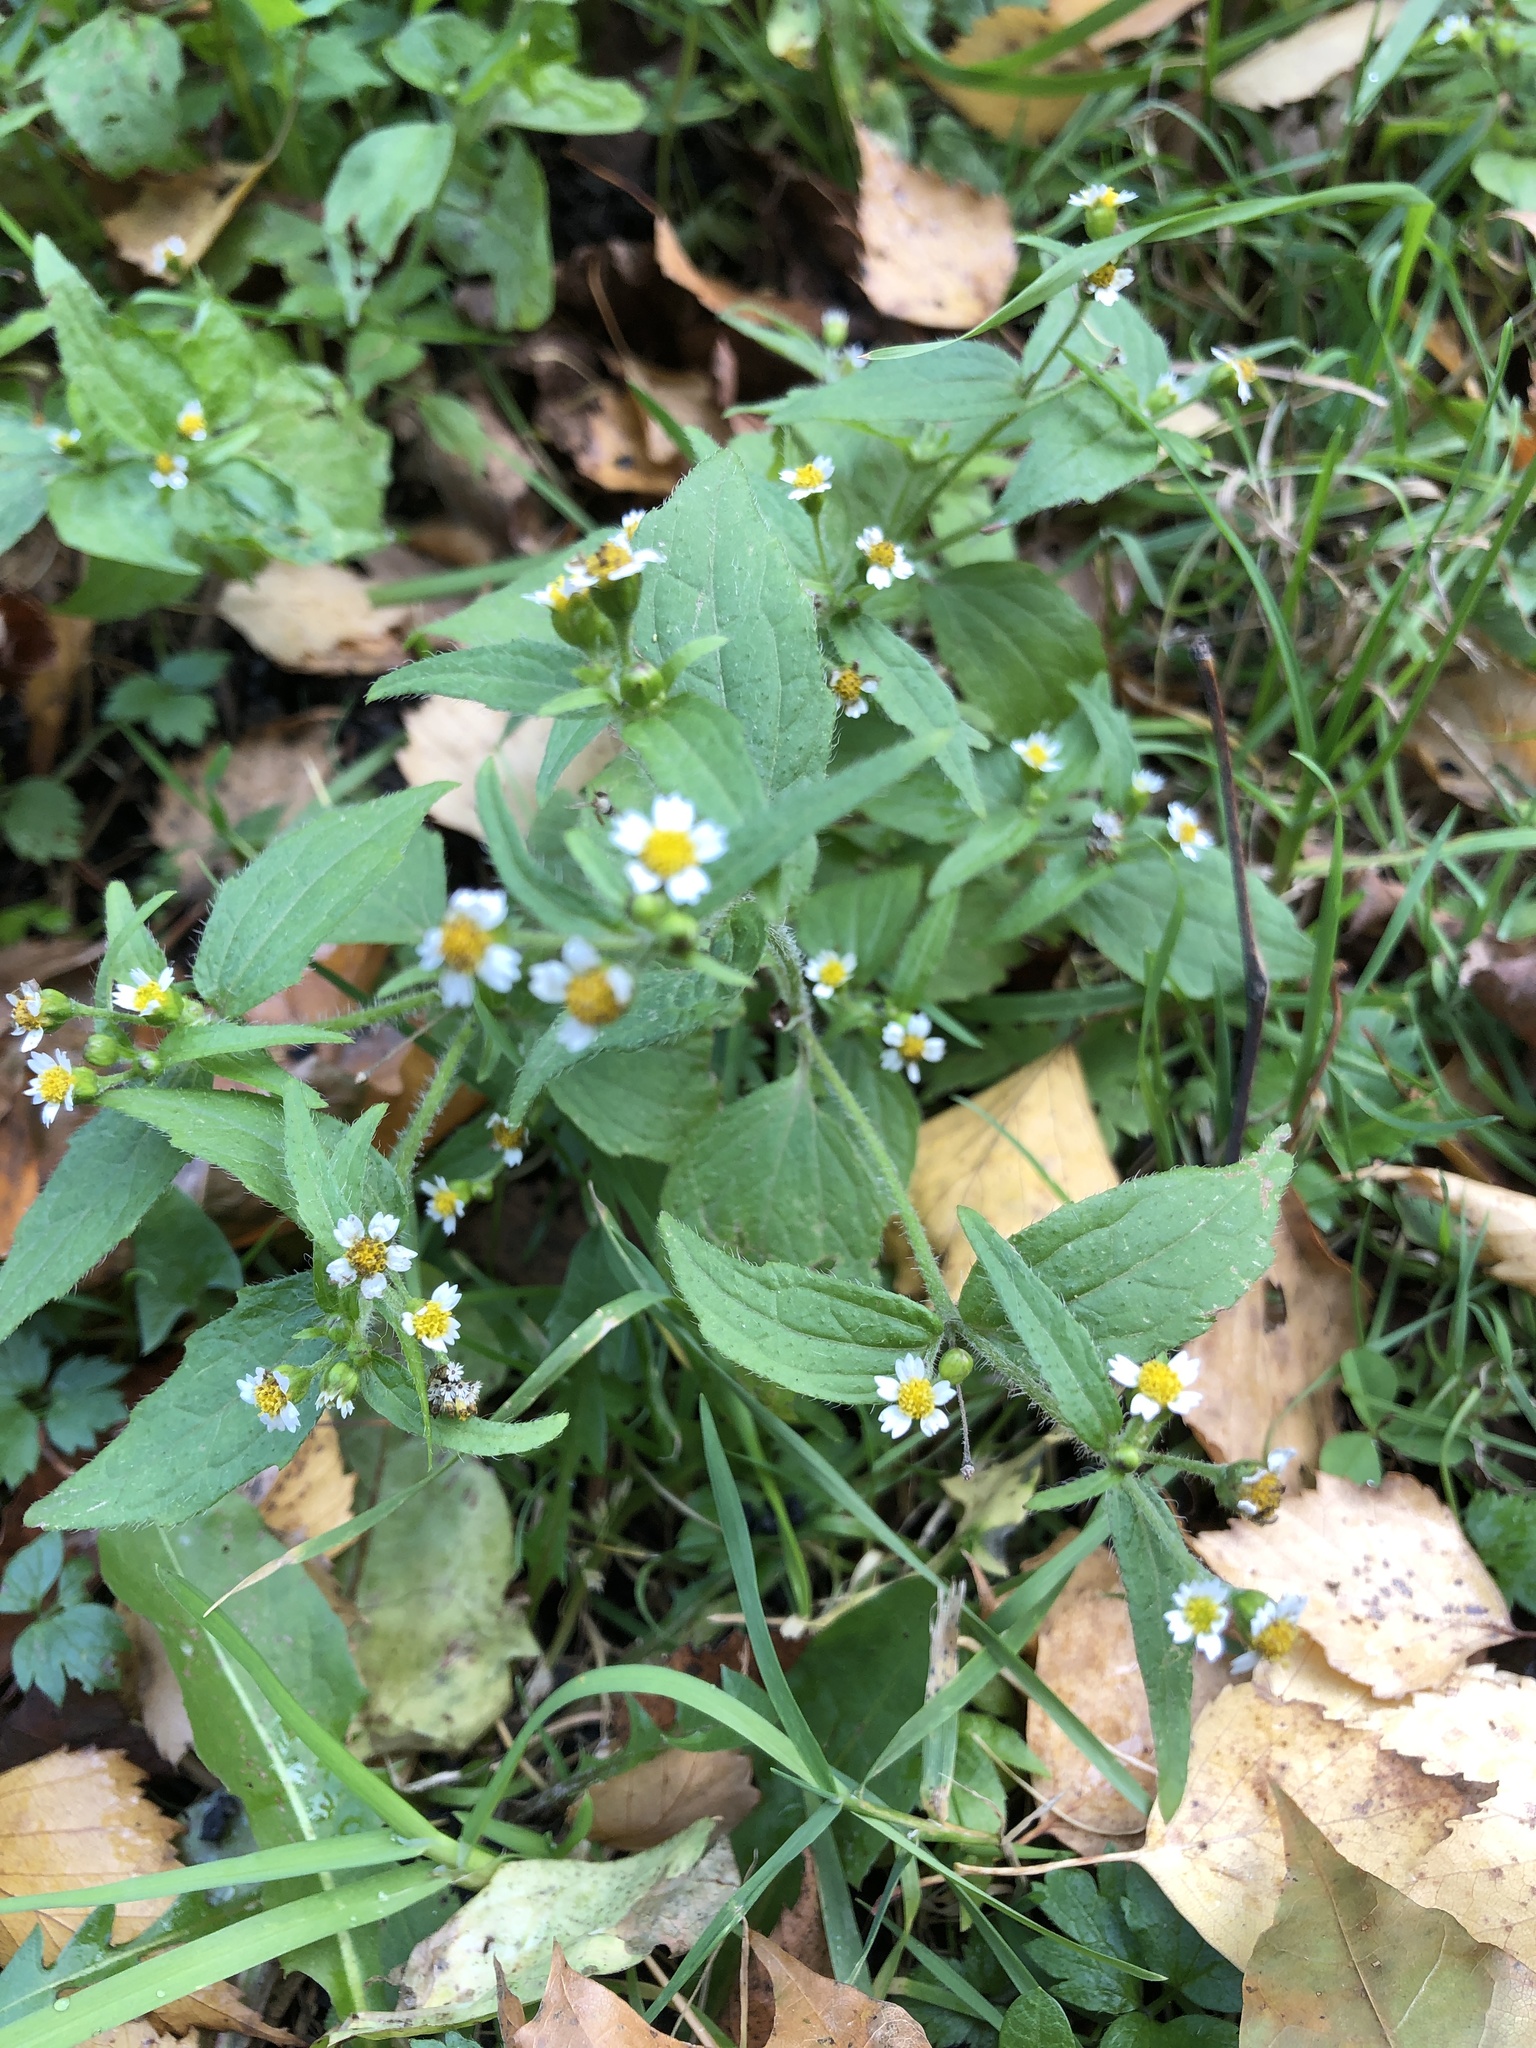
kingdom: Plantae
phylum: Tracheophyta
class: Magnoliopsida
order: Asterales
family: Asteraceae
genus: Galinsoga
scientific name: Galinsoga quadriradiata
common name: Shaggy soldier
